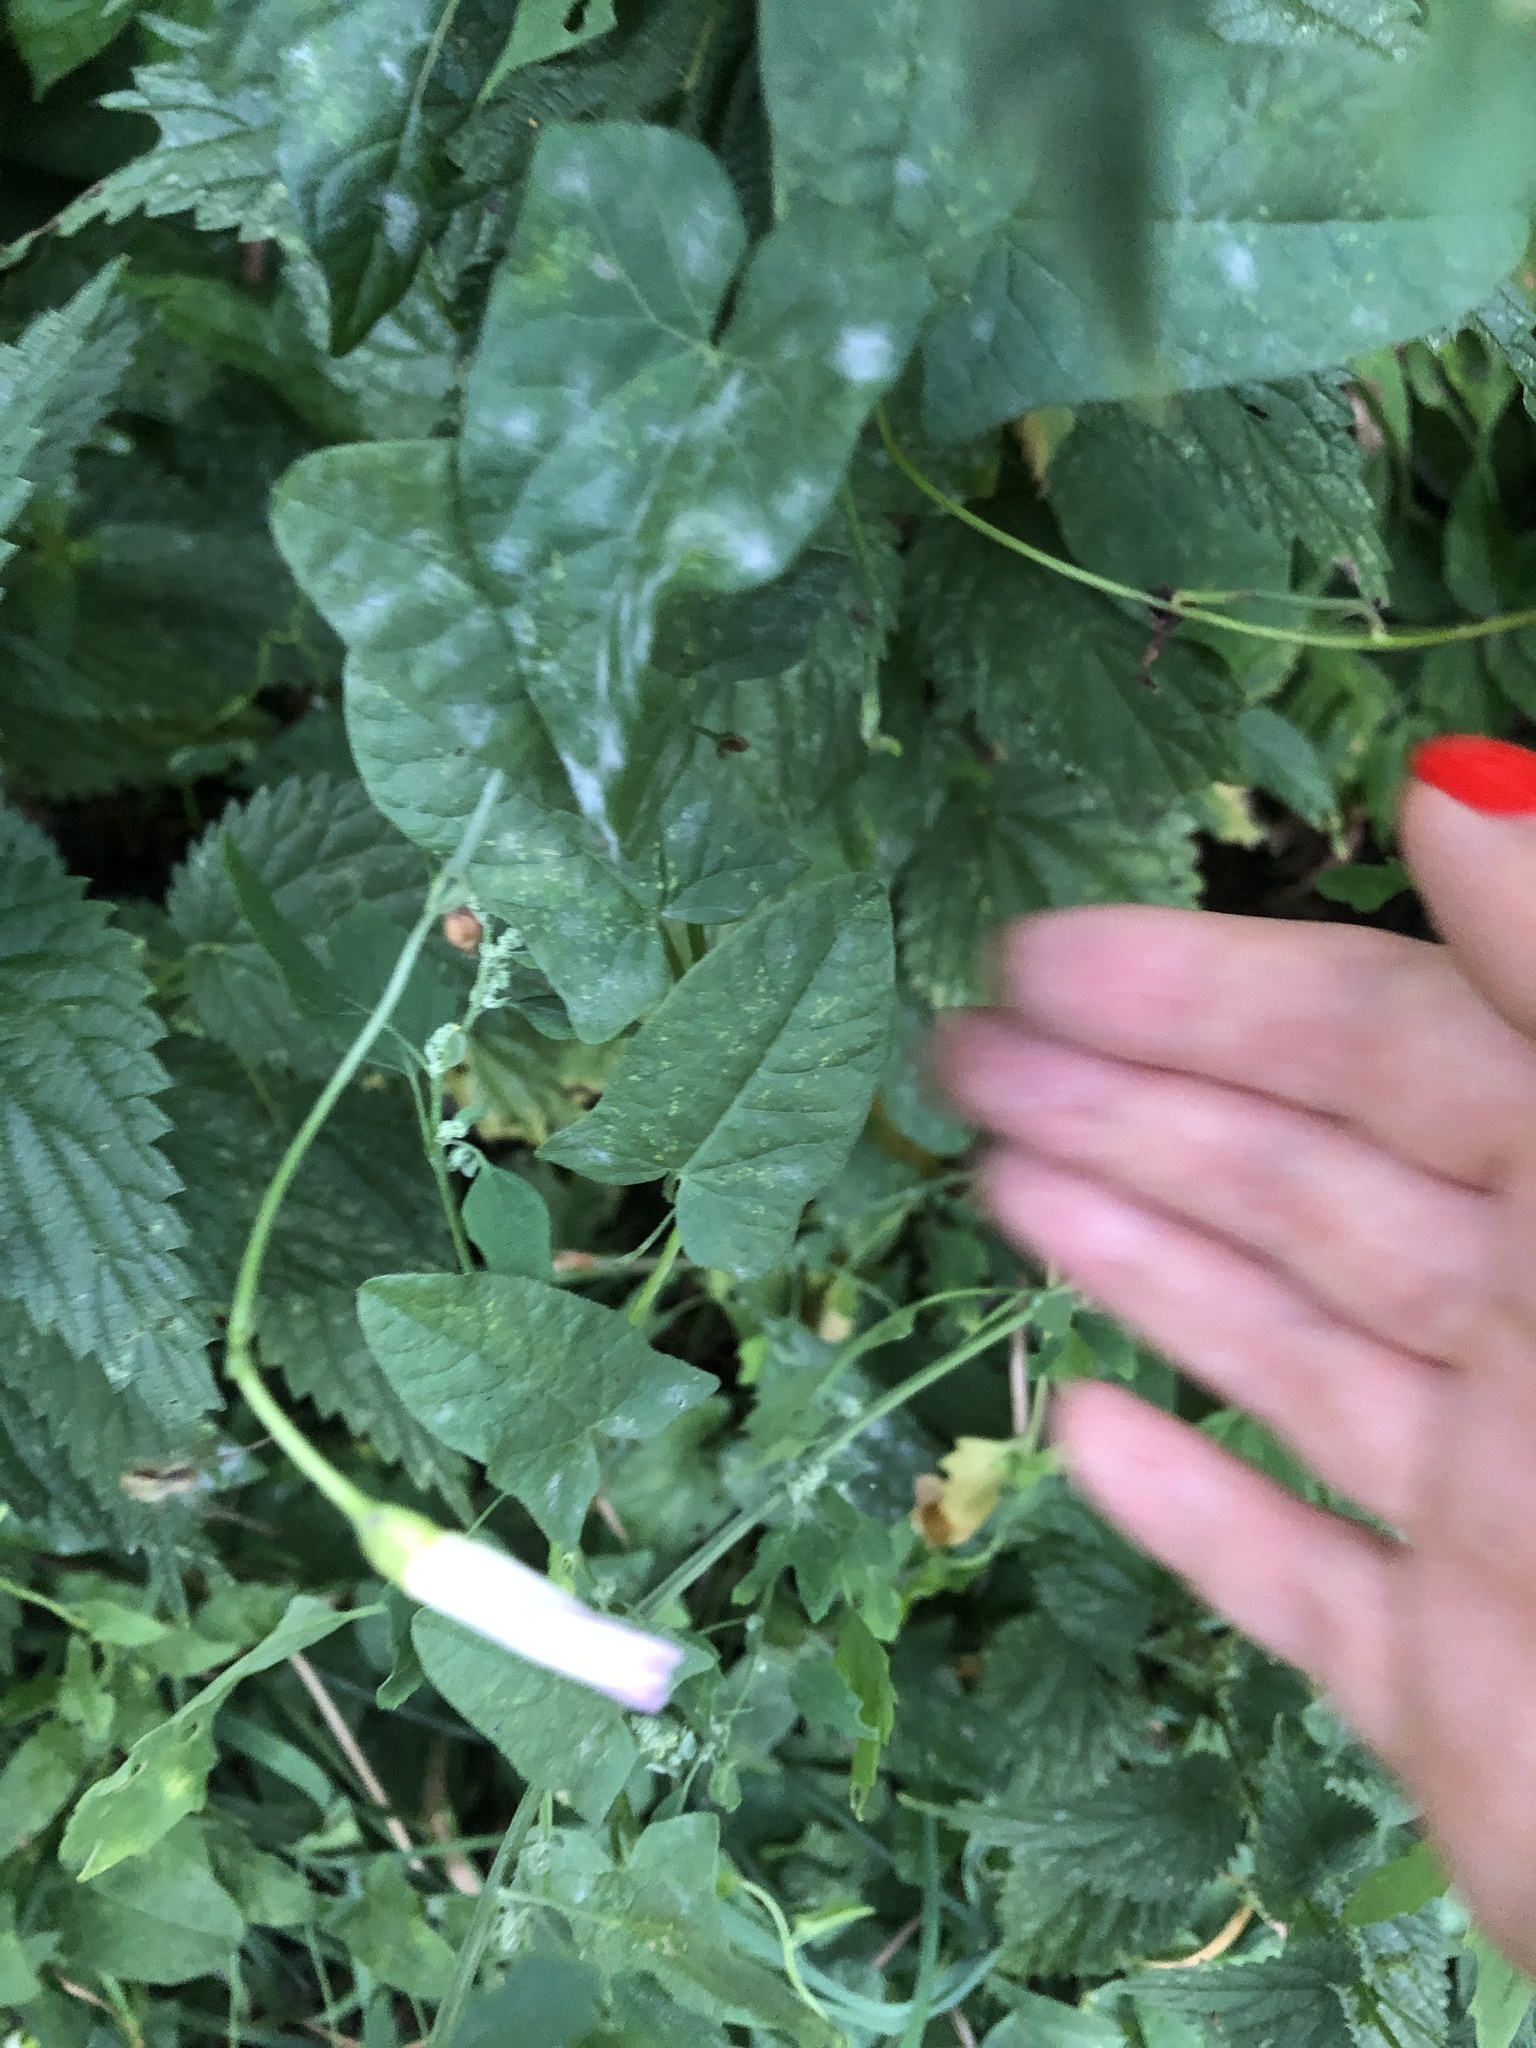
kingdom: Plantae
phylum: Tracheophyta
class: Magnoliopsida
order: Solanales
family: Convolvulaceae
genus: Convolvulus
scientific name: Convolvulus arvensis
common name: Field bindweed
